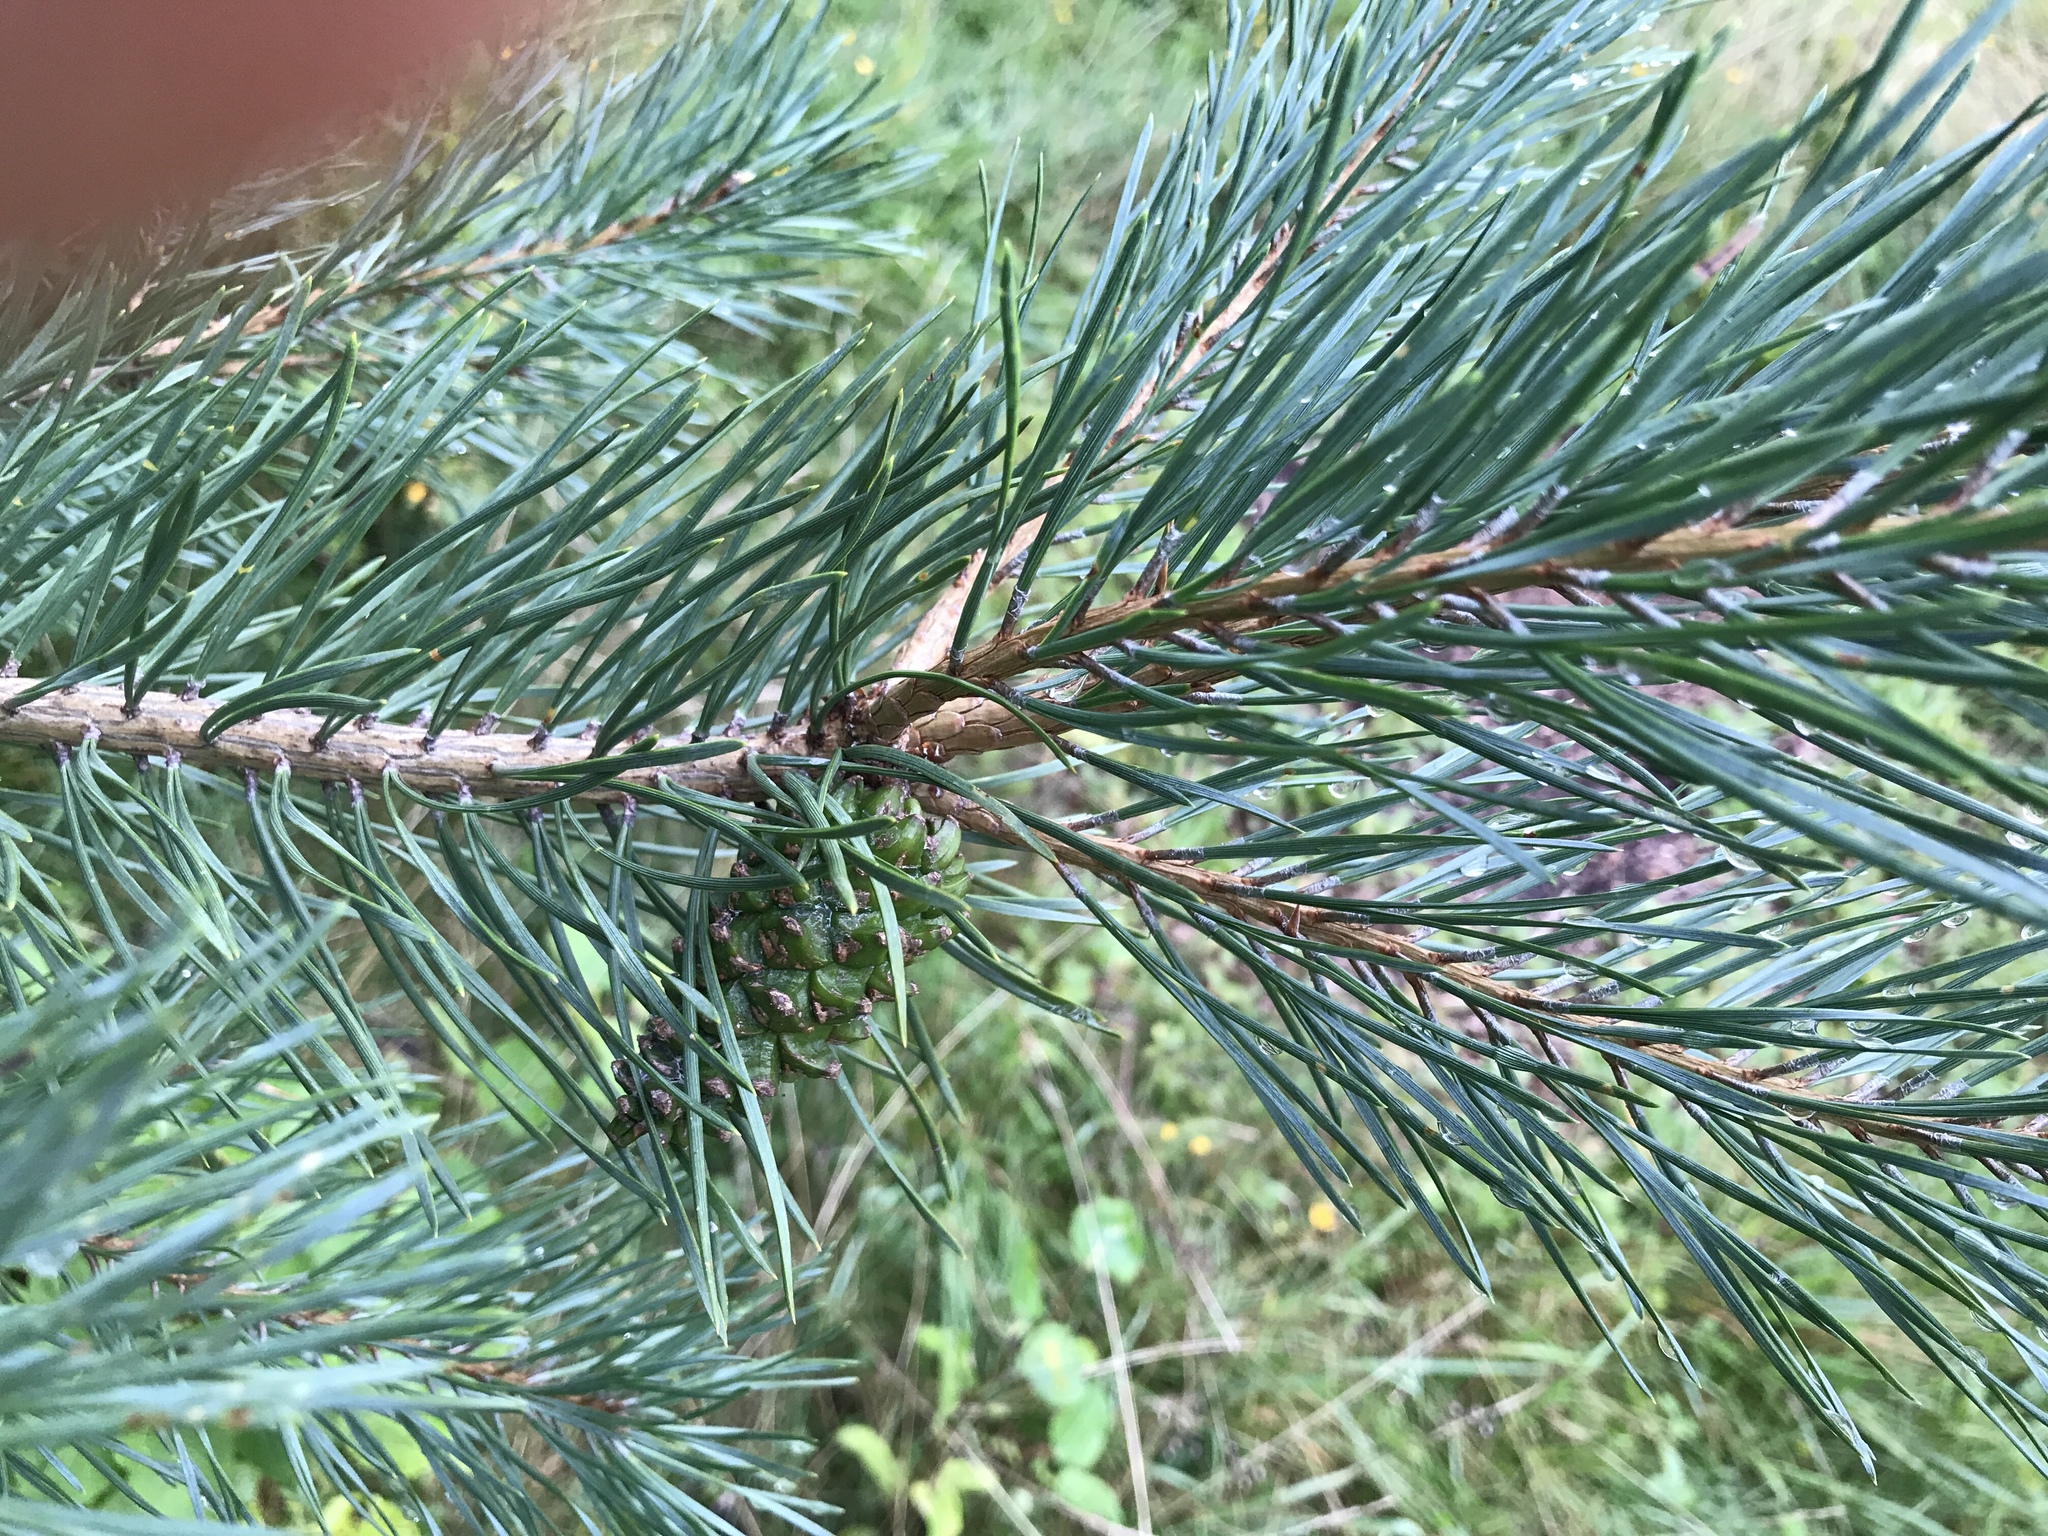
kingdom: Plantae
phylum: Tracheophyta
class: Pinopsida
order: Pinales
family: Pinaceae
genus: Pinus
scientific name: Pinus sylvestris
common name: Scots pine
